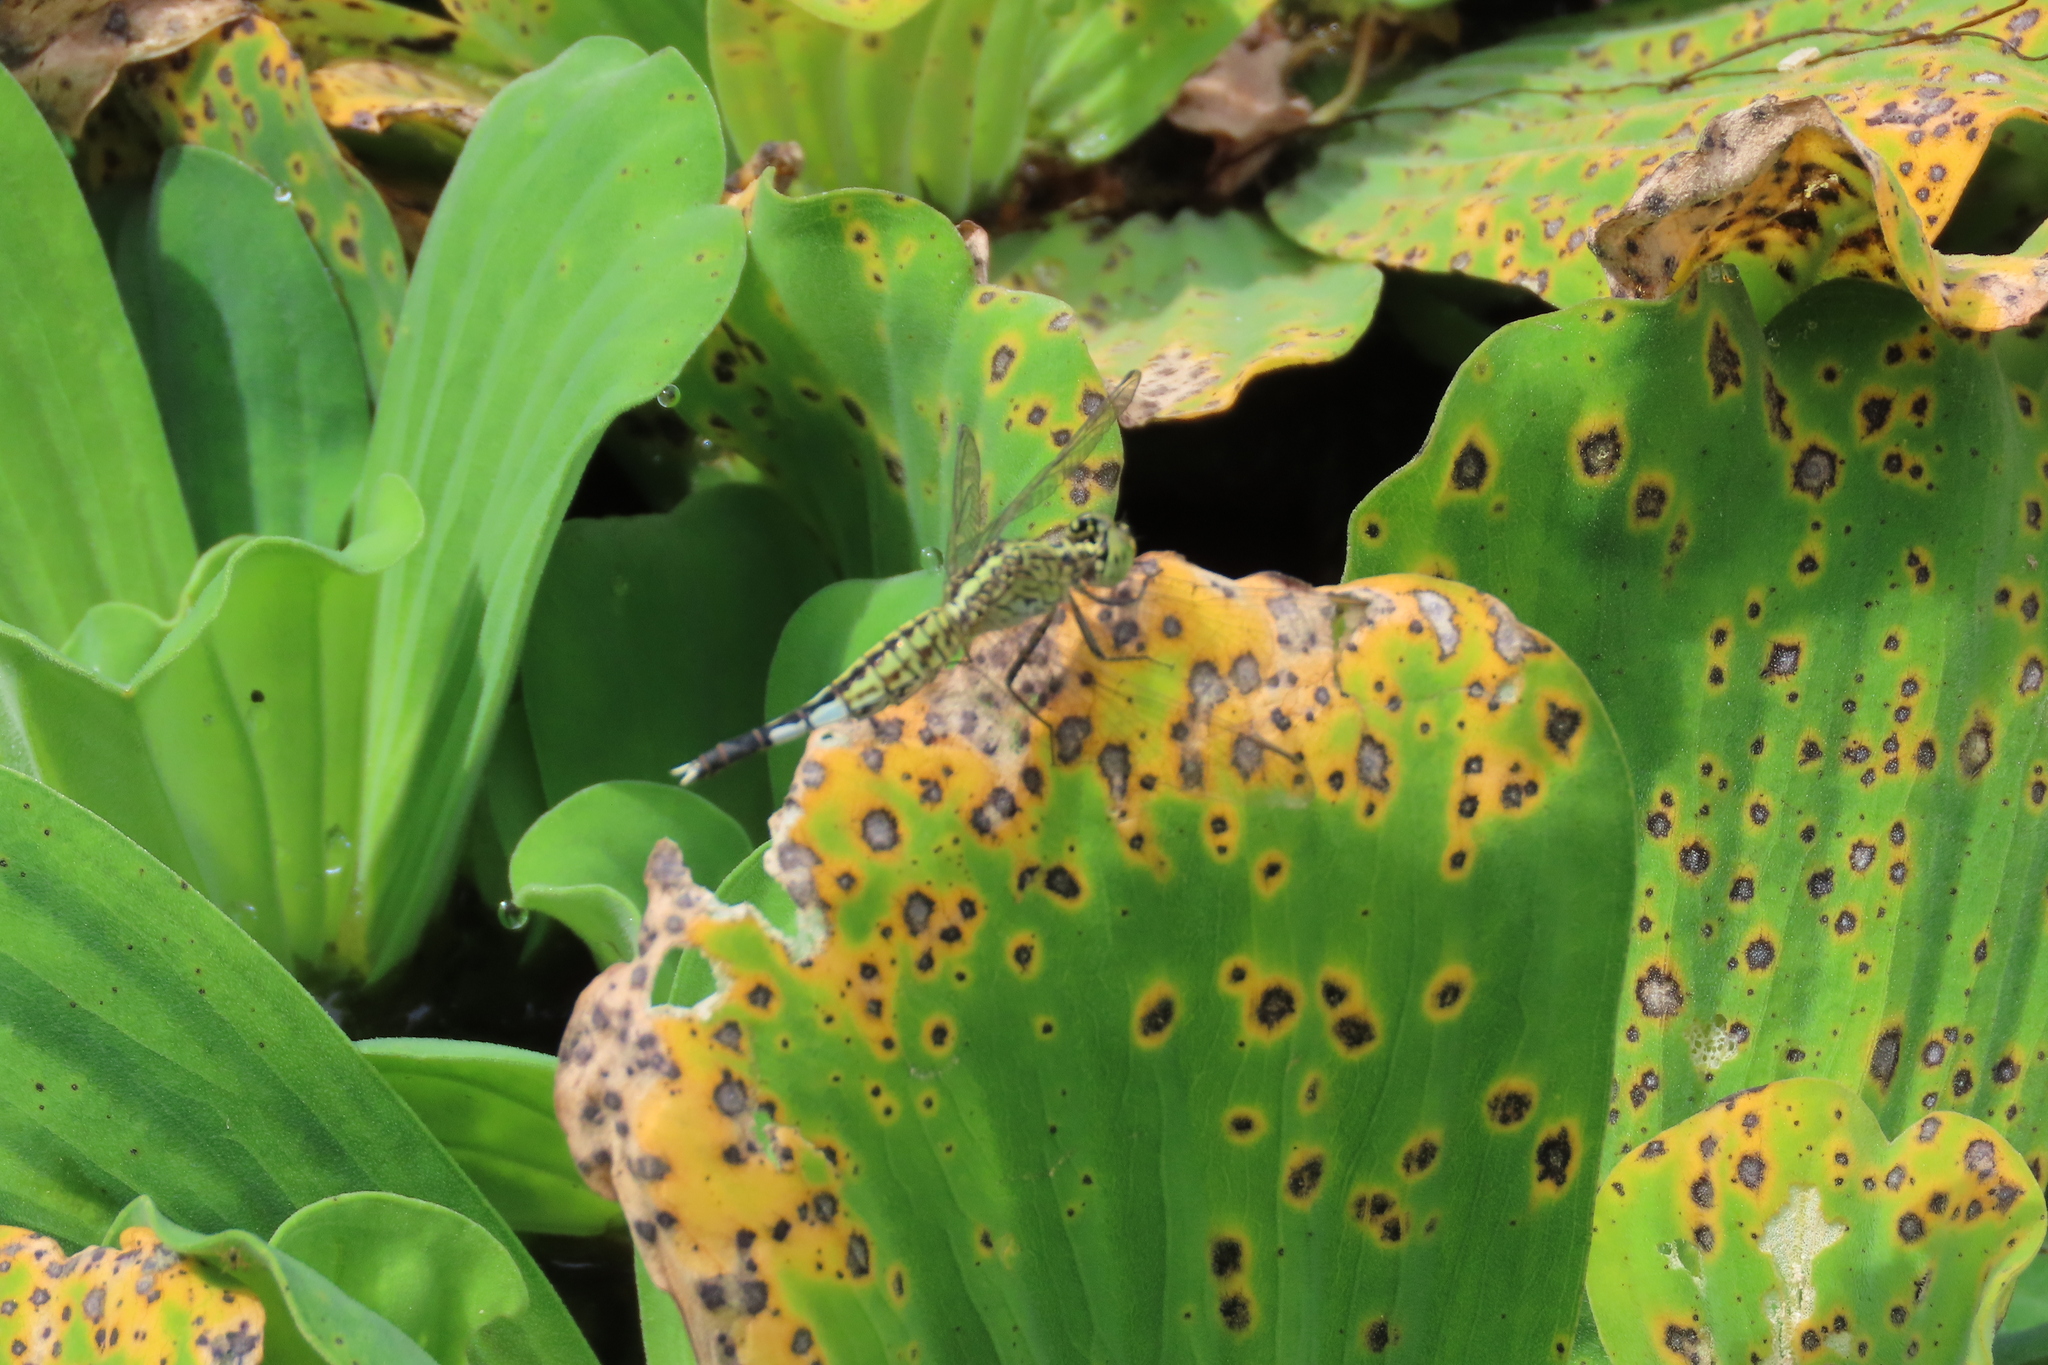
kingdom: Animalia
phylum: Arthropoda
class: Insecta
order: Odonata
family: Libellulidae
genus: Acisoma
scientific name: Acisoma panorpoides
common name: Asian pintail
